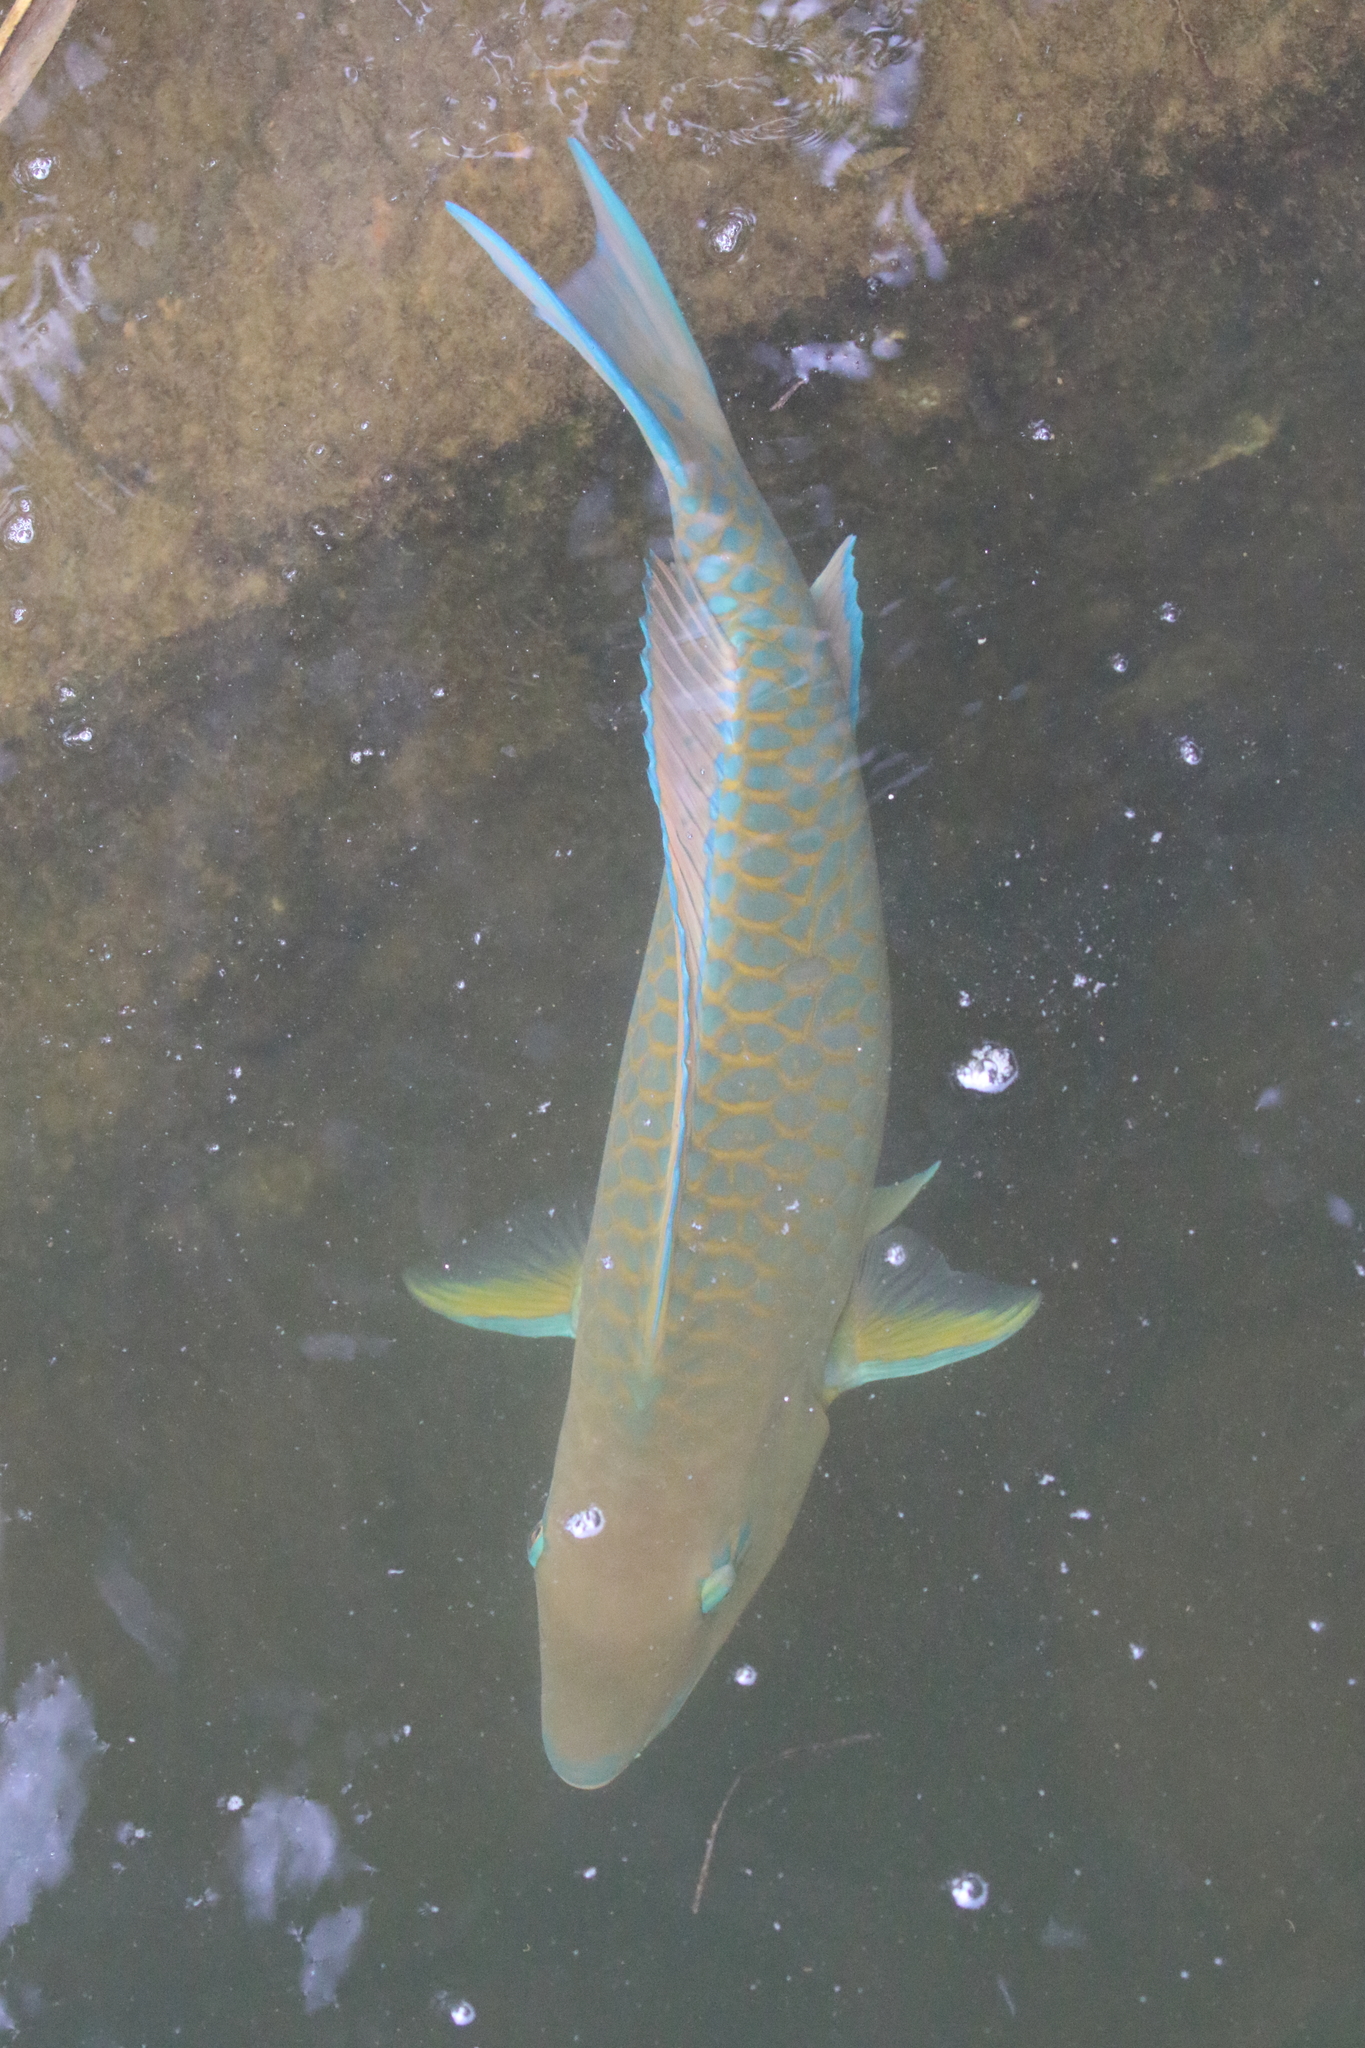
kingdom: Animalia
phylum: Chordata
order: Perciformes
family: Scaridae
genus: Scarus
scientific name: Scarus ghobban
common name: Blue-barred parrotfish
